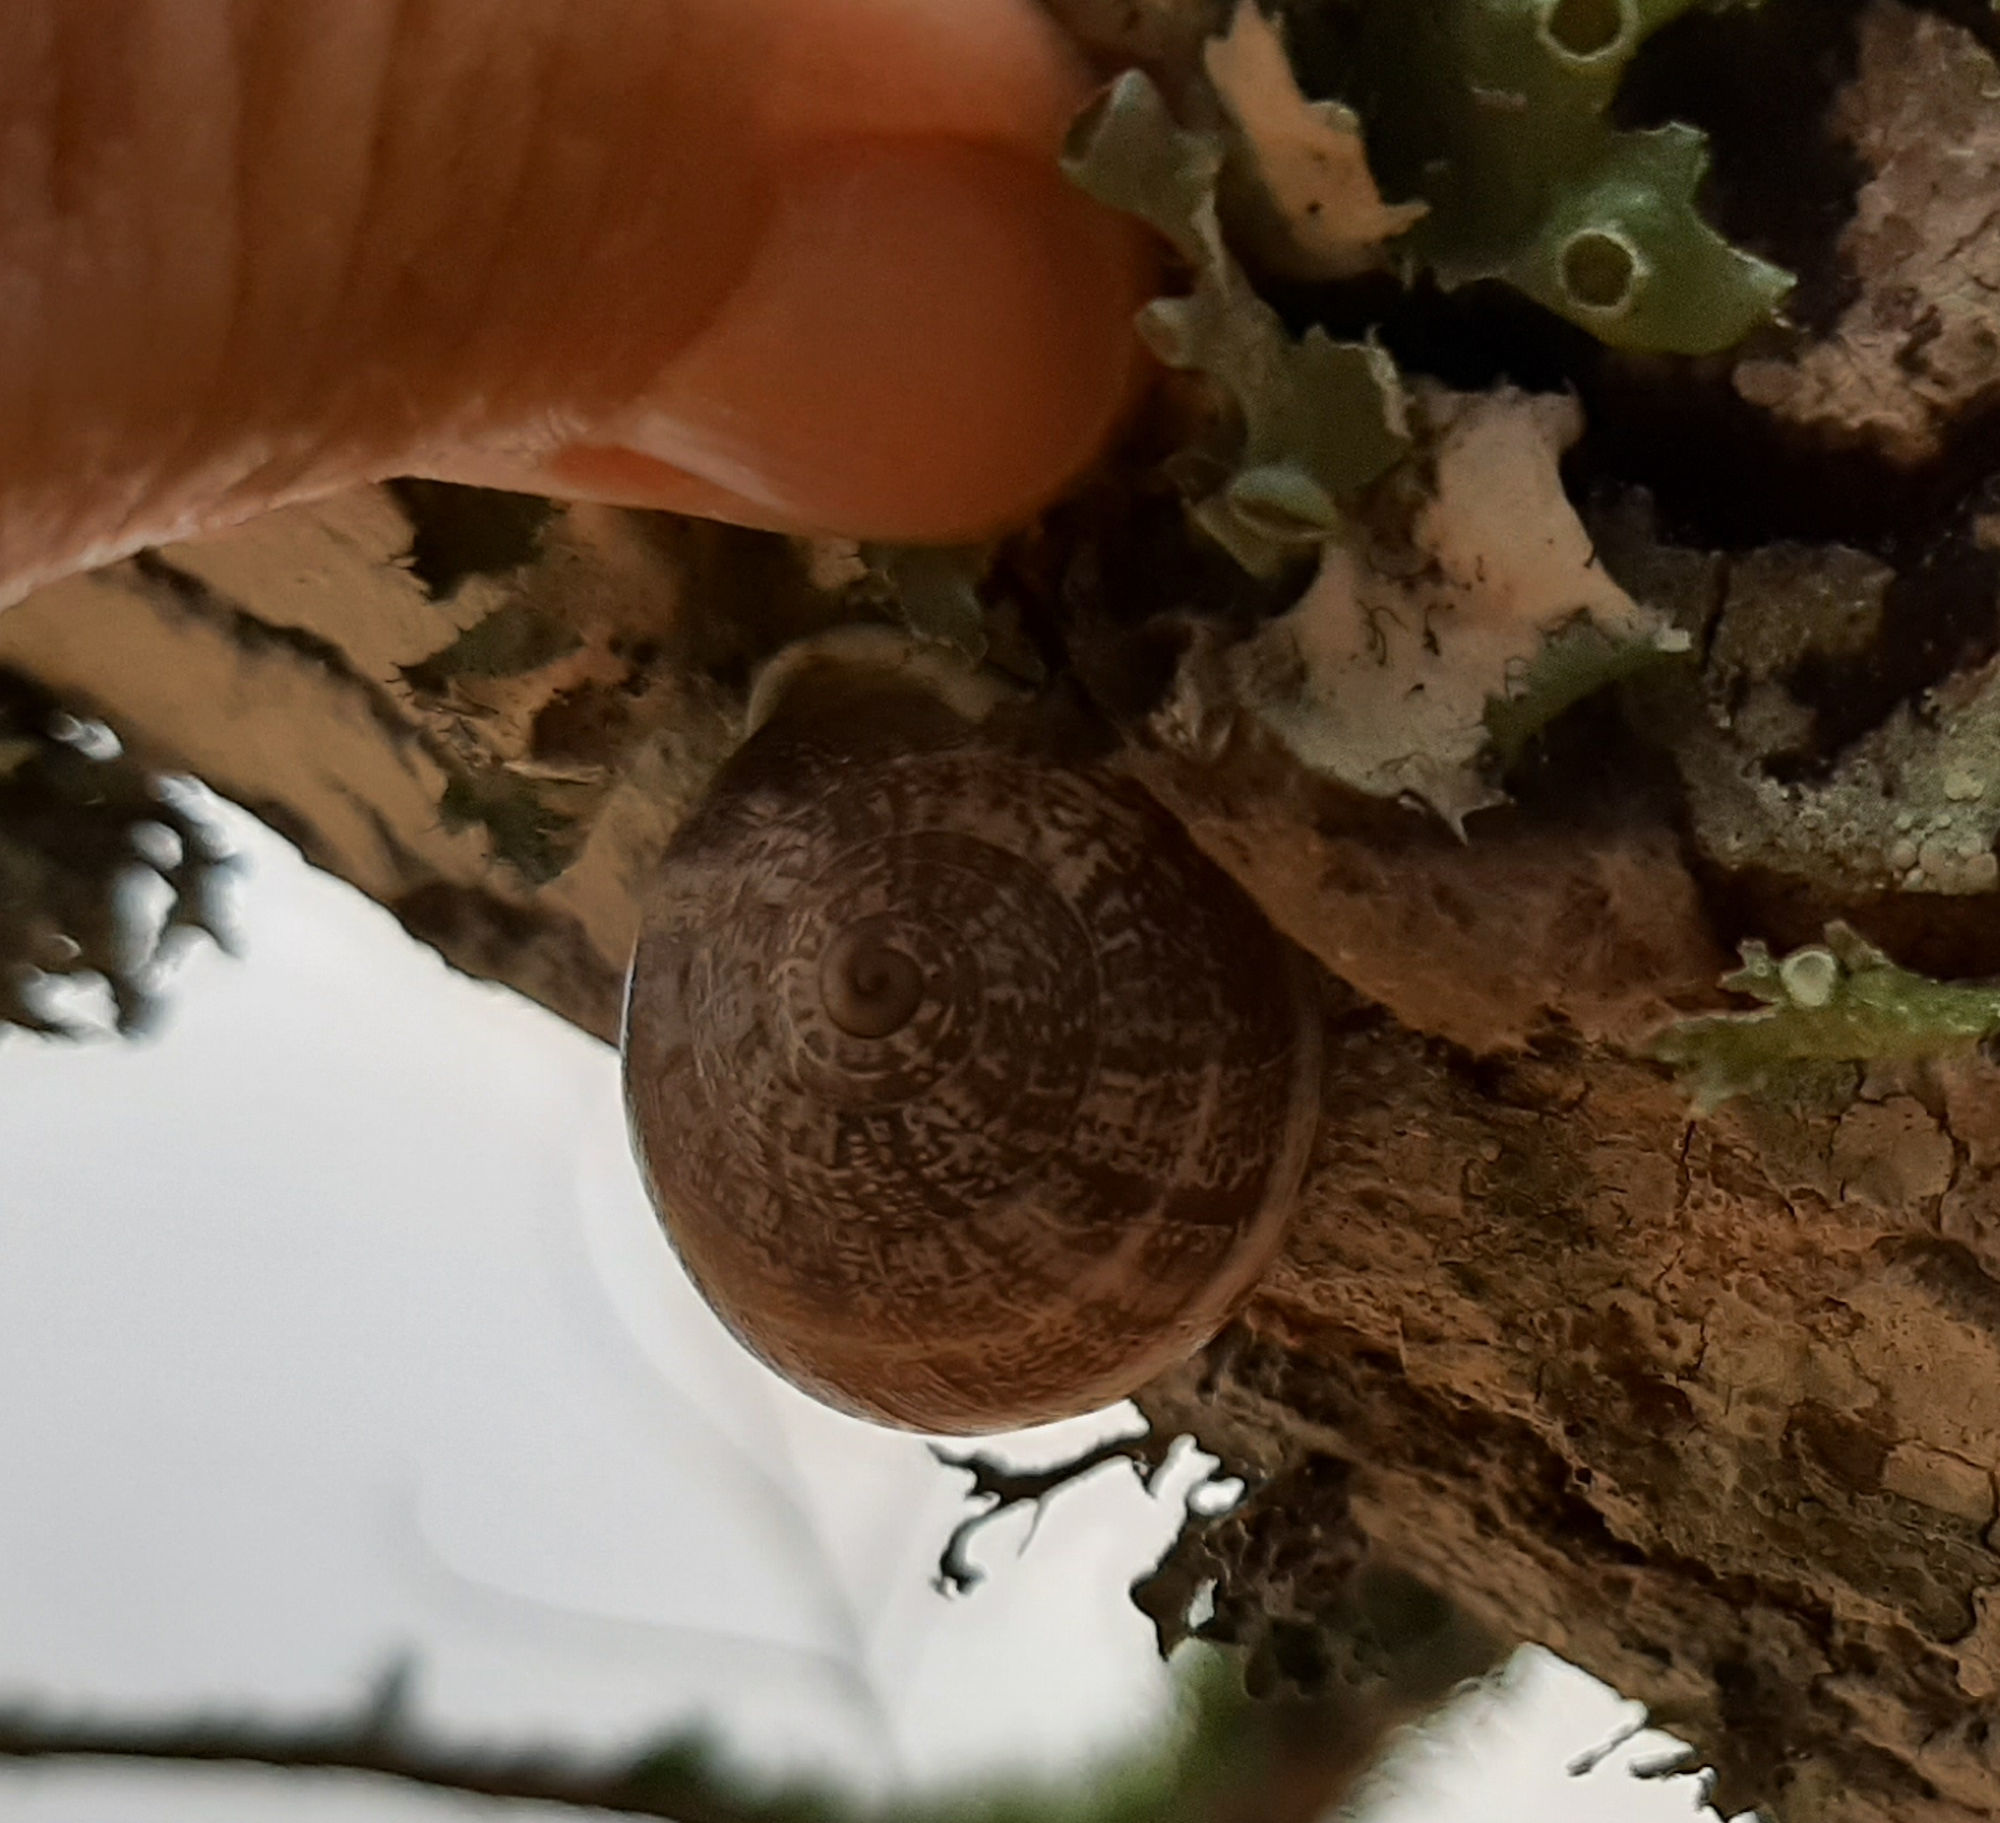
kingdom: Animalia
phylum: Mollusca
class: Gastropoda
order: Stylommatophora
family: Helicidae
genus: Otala
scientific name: Otala lactea
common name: Milk snail
